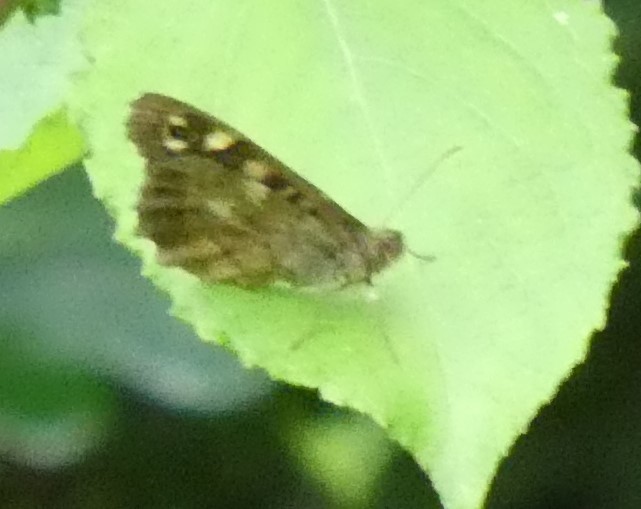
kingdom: Animalia
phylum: Arthropoda
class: Insecta
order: Lepidoptera
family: Nymphalidae
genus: Pararge
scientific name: Pararge aegeria
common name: Speckled wood
